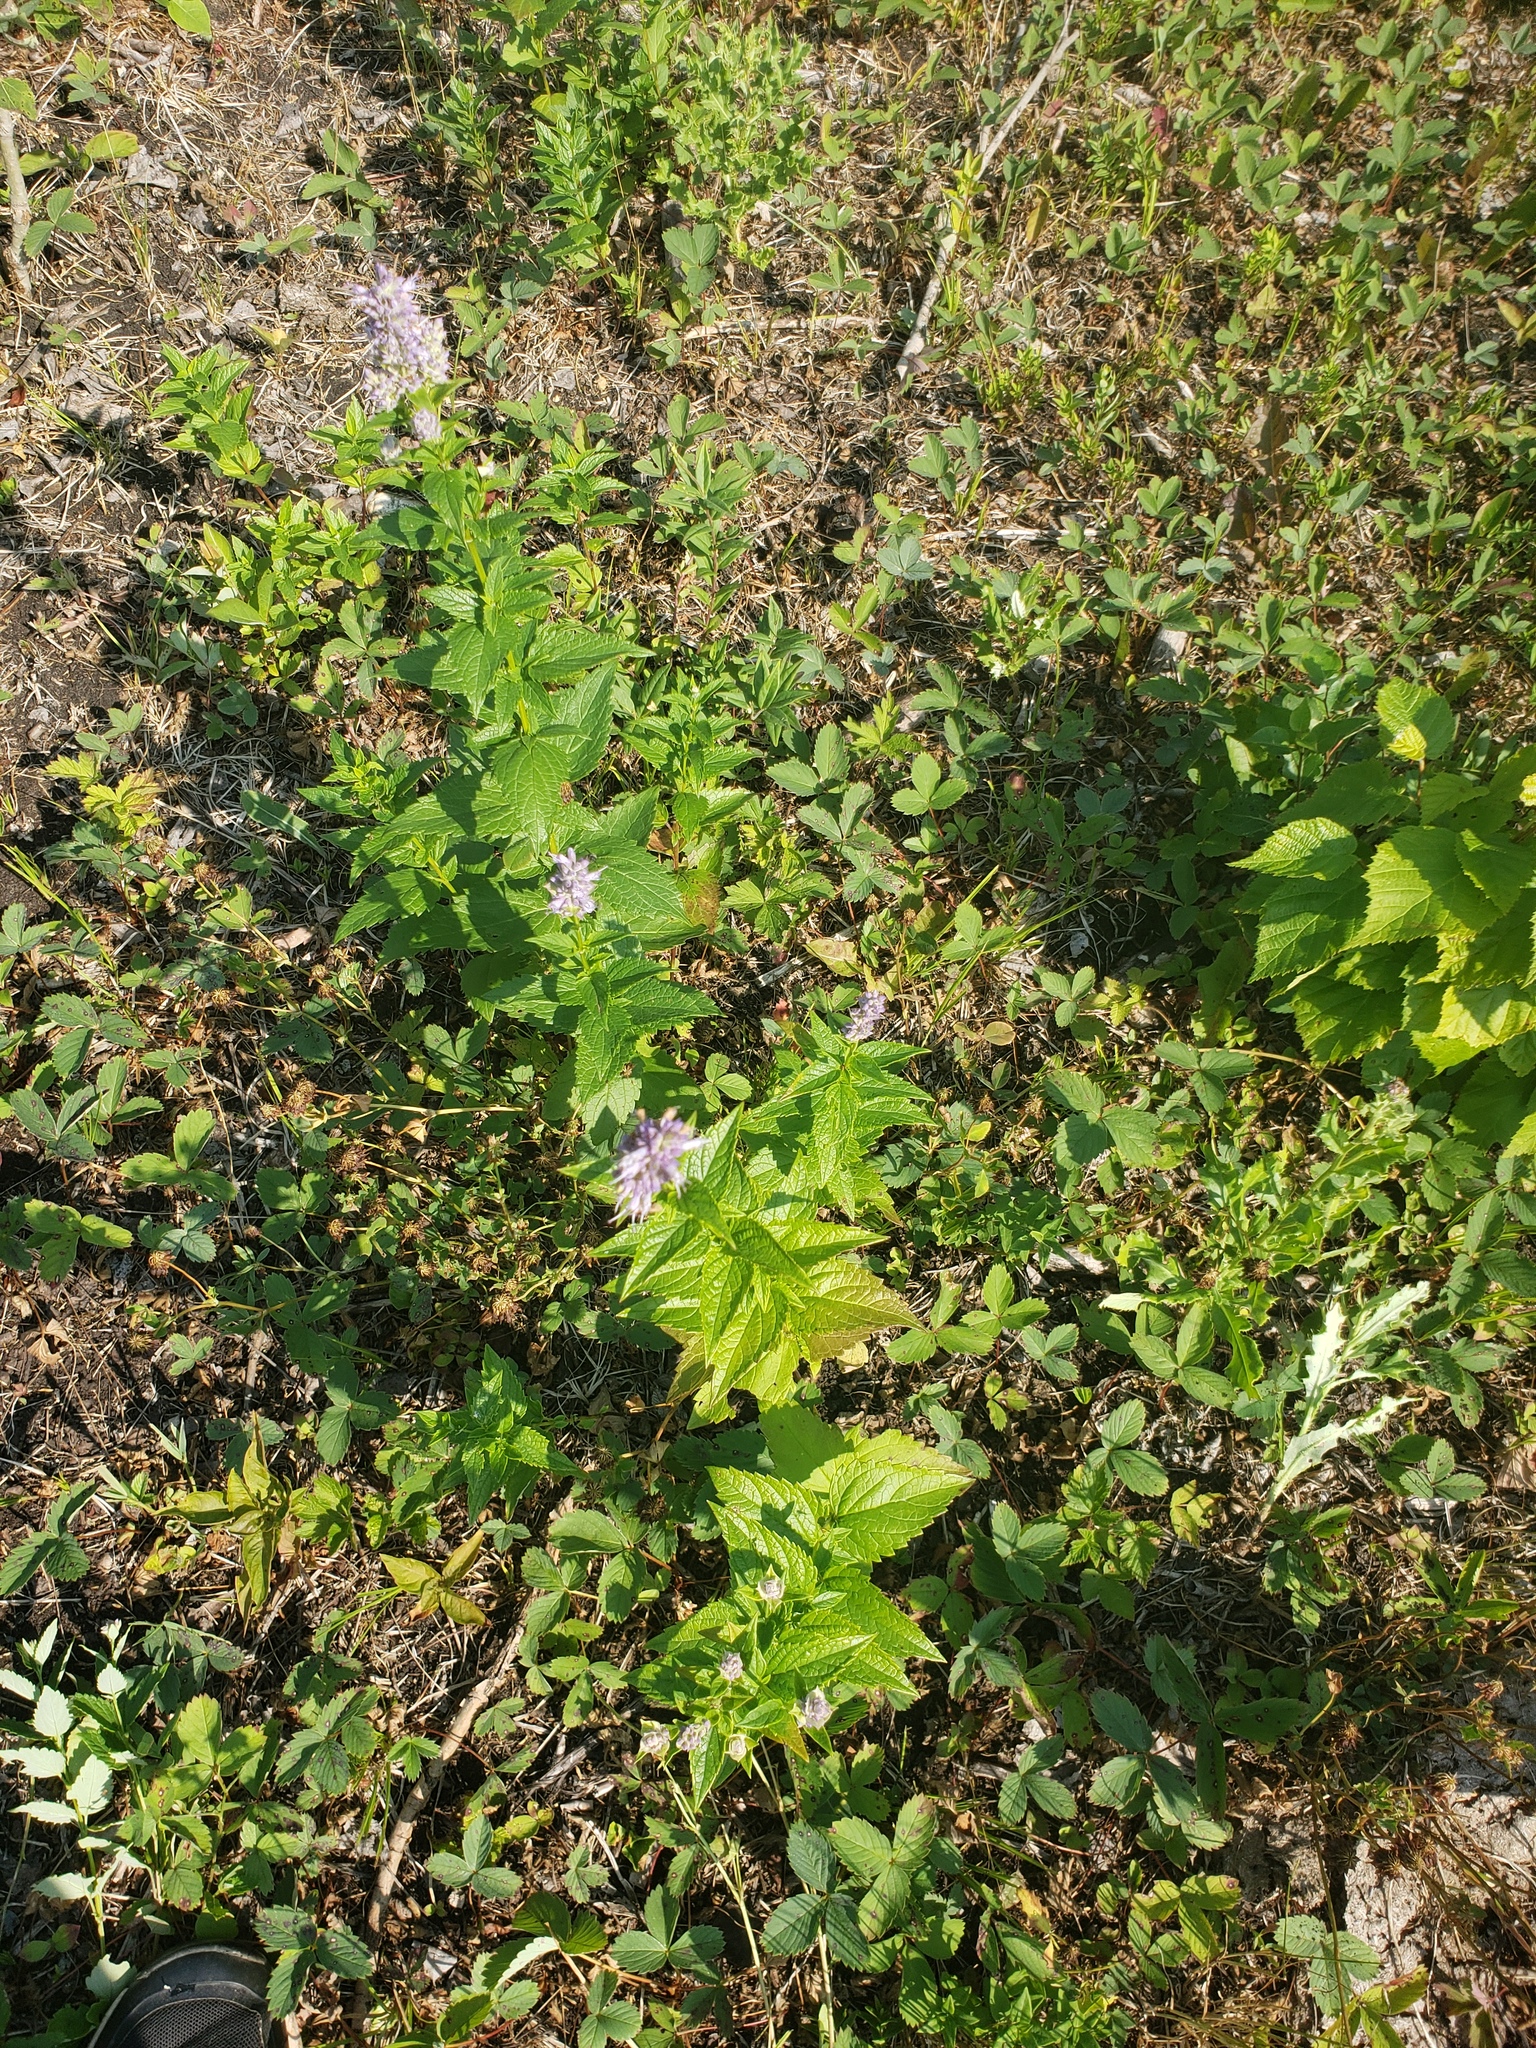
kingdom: Plantae
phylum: Tracheophyta
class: Magnoliopsida
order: Lamiales
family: Lamiaceae
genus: Agastache
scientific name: Agastache foeniculum
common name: Anise hyssop
